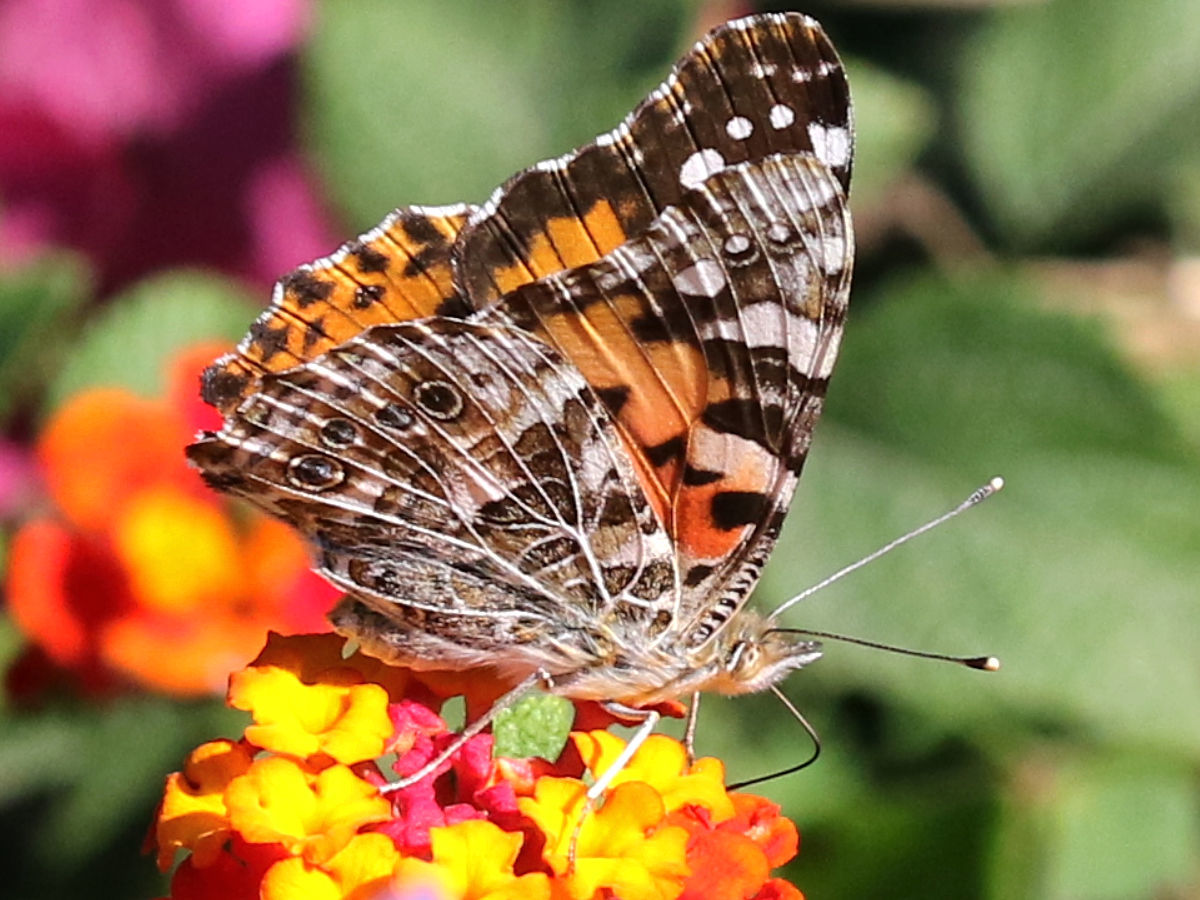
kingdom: Animalia
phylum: Arthropoda
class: Insecta
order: Lepidoptera
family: Nymphalidae
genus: Vanessa
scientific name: Vanessa cardui
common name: Painted lady
